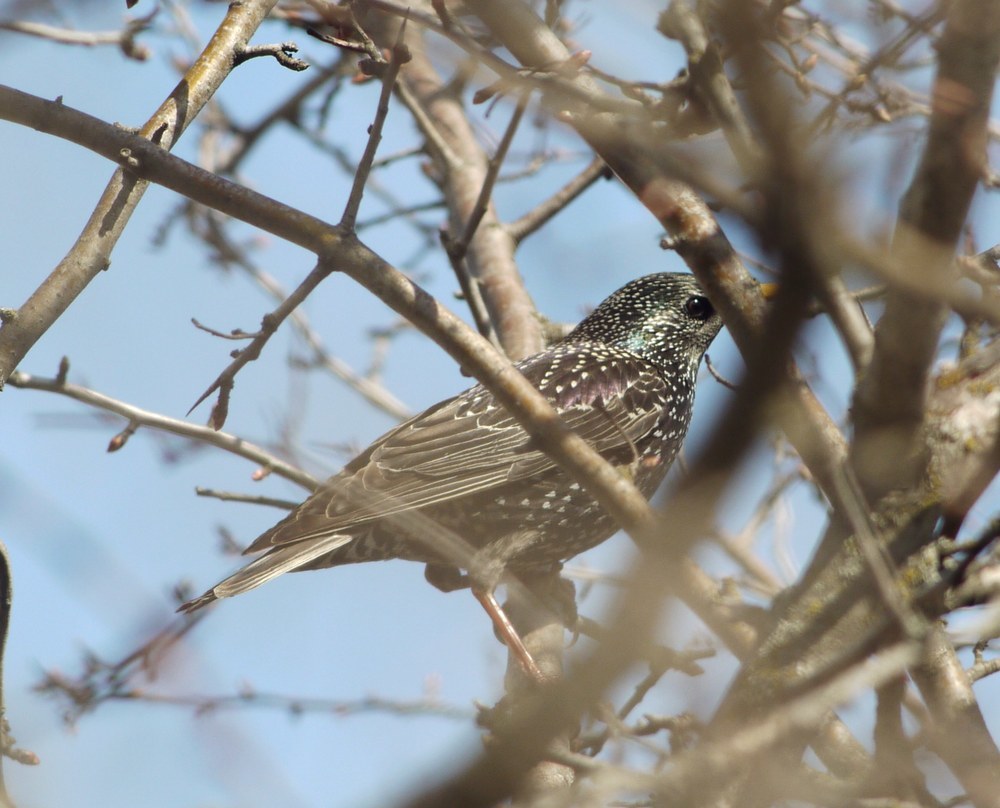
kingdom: Animalia
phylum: Chordata
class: Aves
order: Passeriformes
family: Sturnidae
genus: Sturnus
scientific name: Sturnus vulgaris
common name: Common starling
